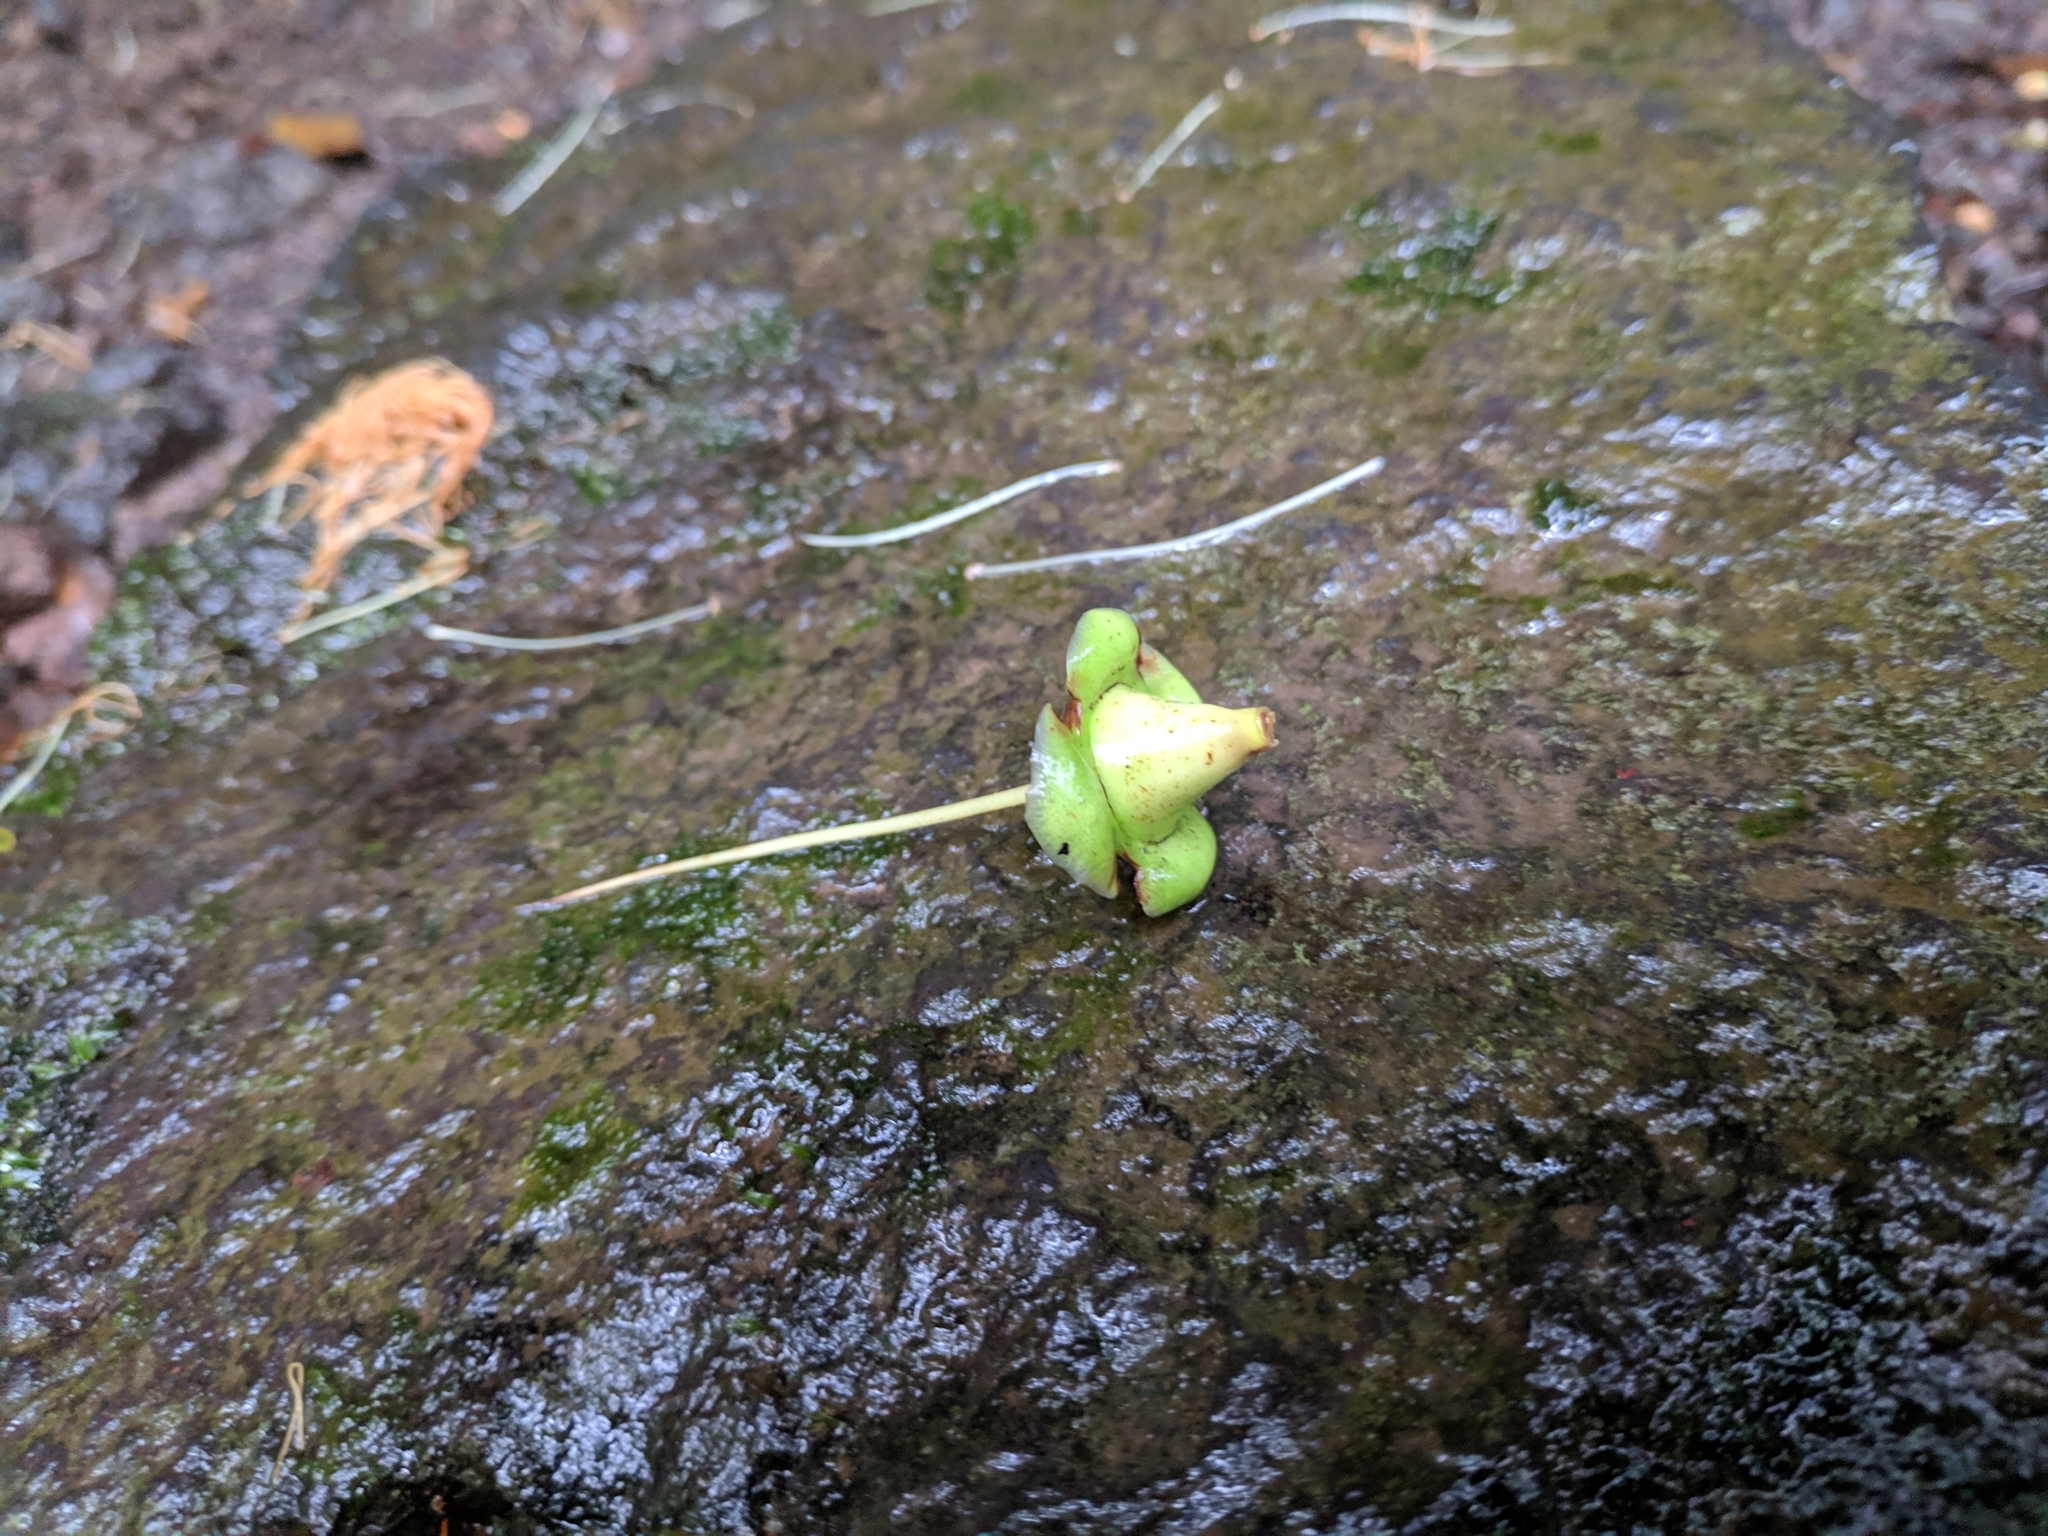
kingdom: Plantae
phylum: Tracheophyta
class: Magnoliopsida
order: Ericales
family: Lecythidaceae
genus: Foetidia
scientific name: Foetidia mauritiana
